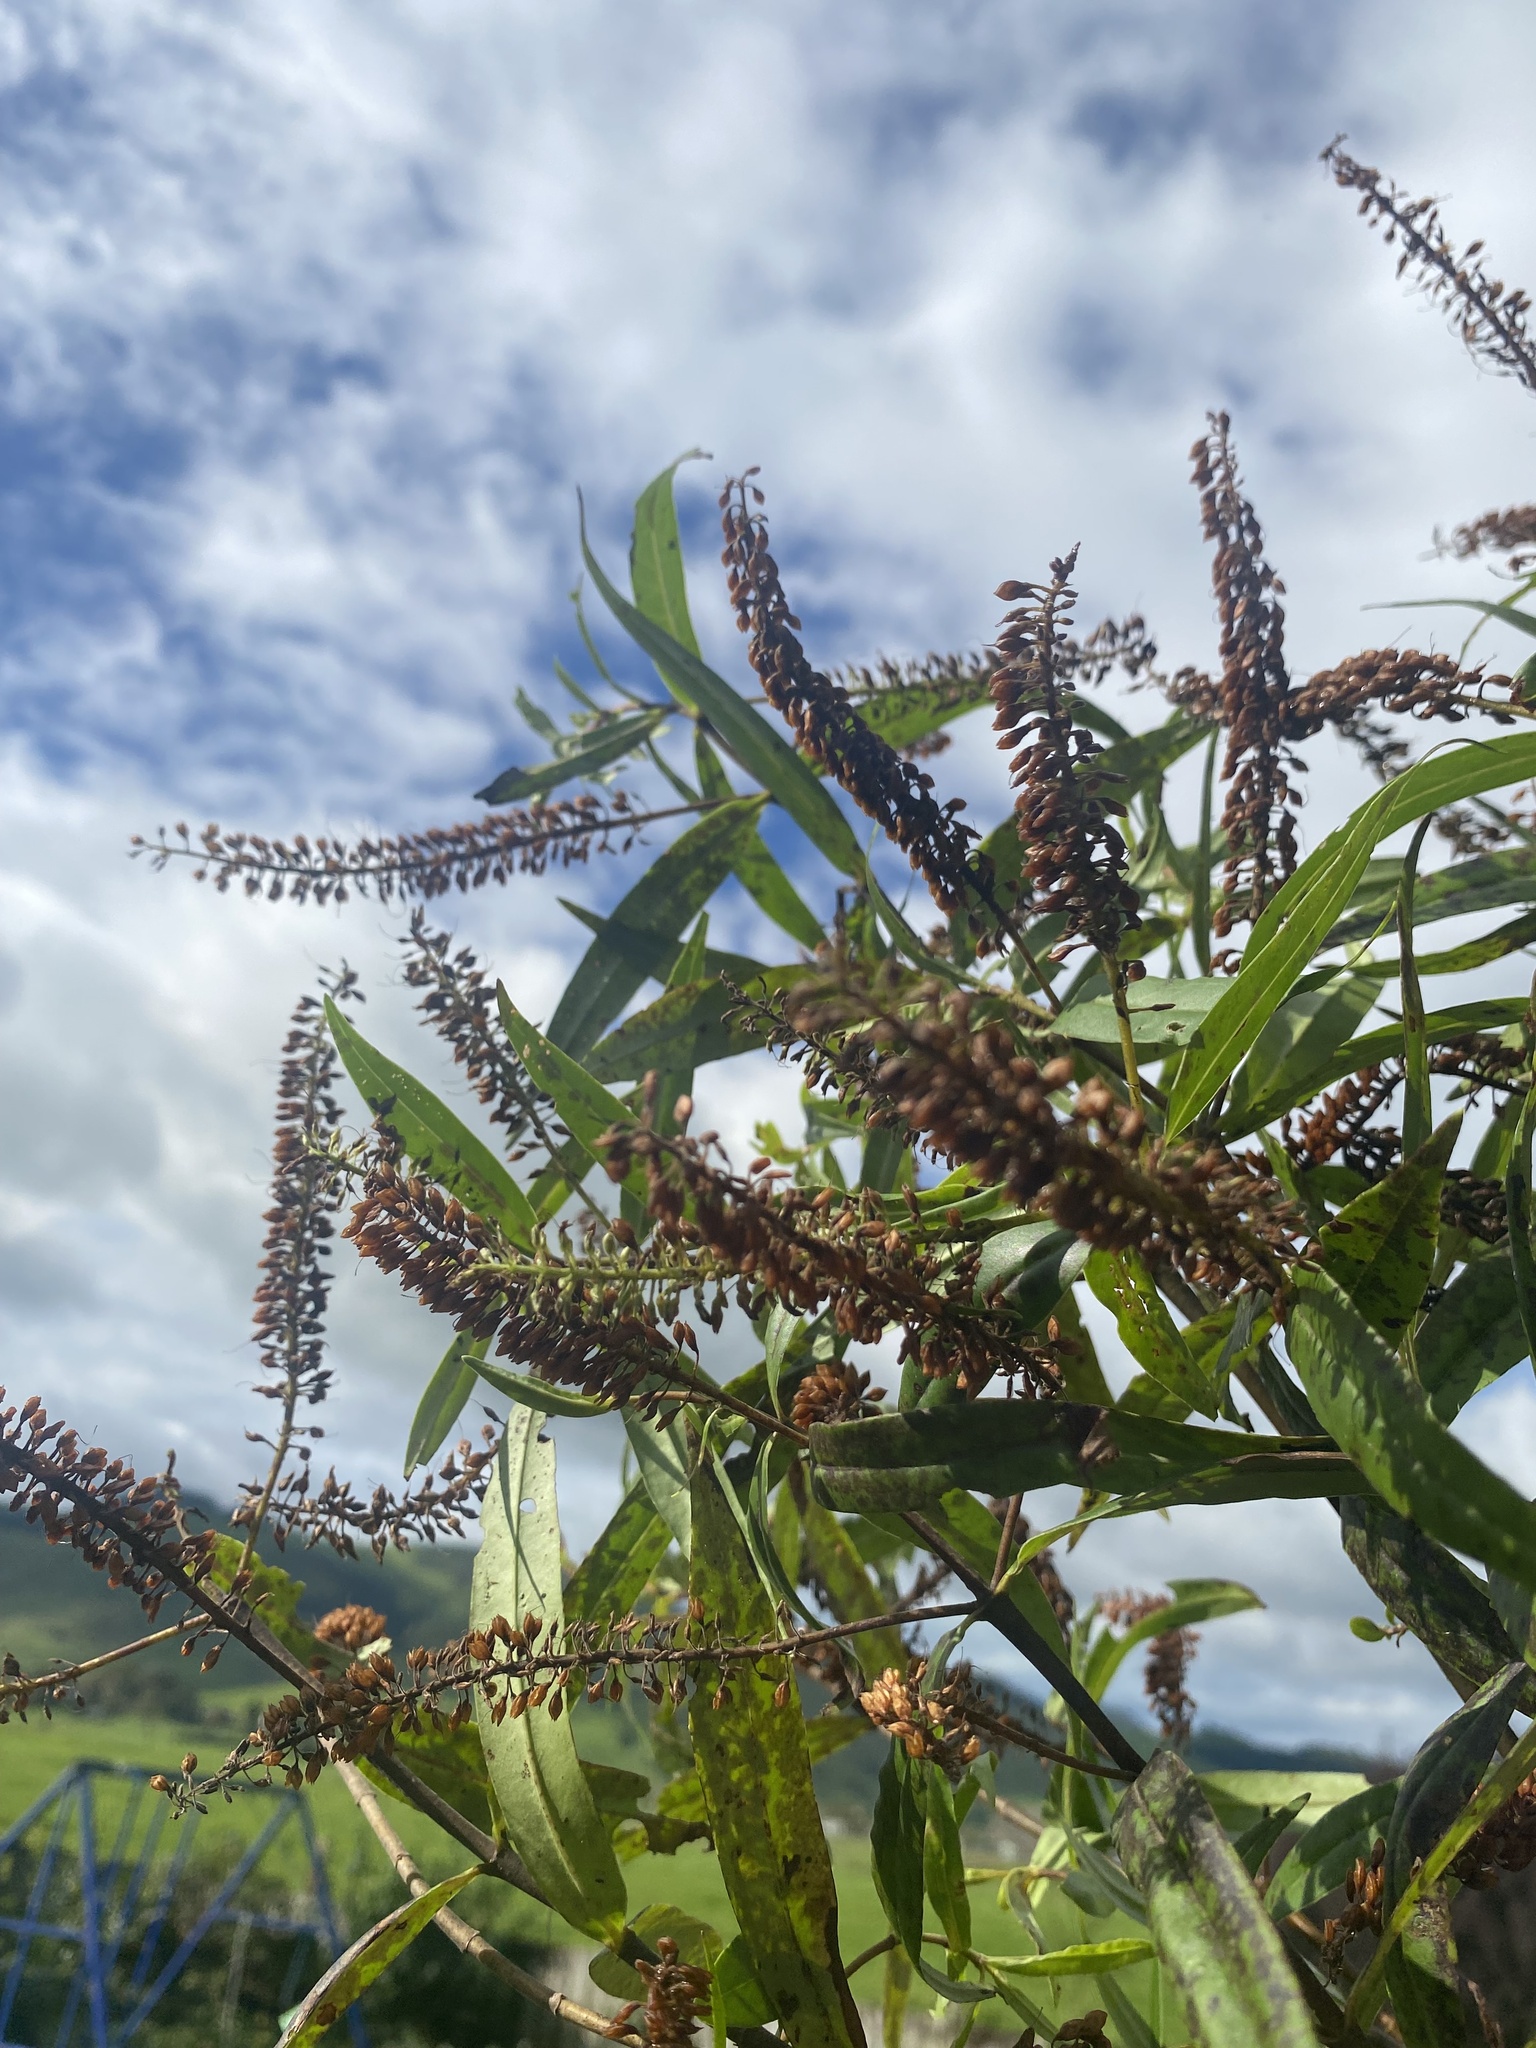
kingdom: Plantae
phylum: Tracheophyta
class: Magnoliopsida
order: Lamiales
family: Plantaginaceae
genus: Veronica
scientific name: Veronica stricta
